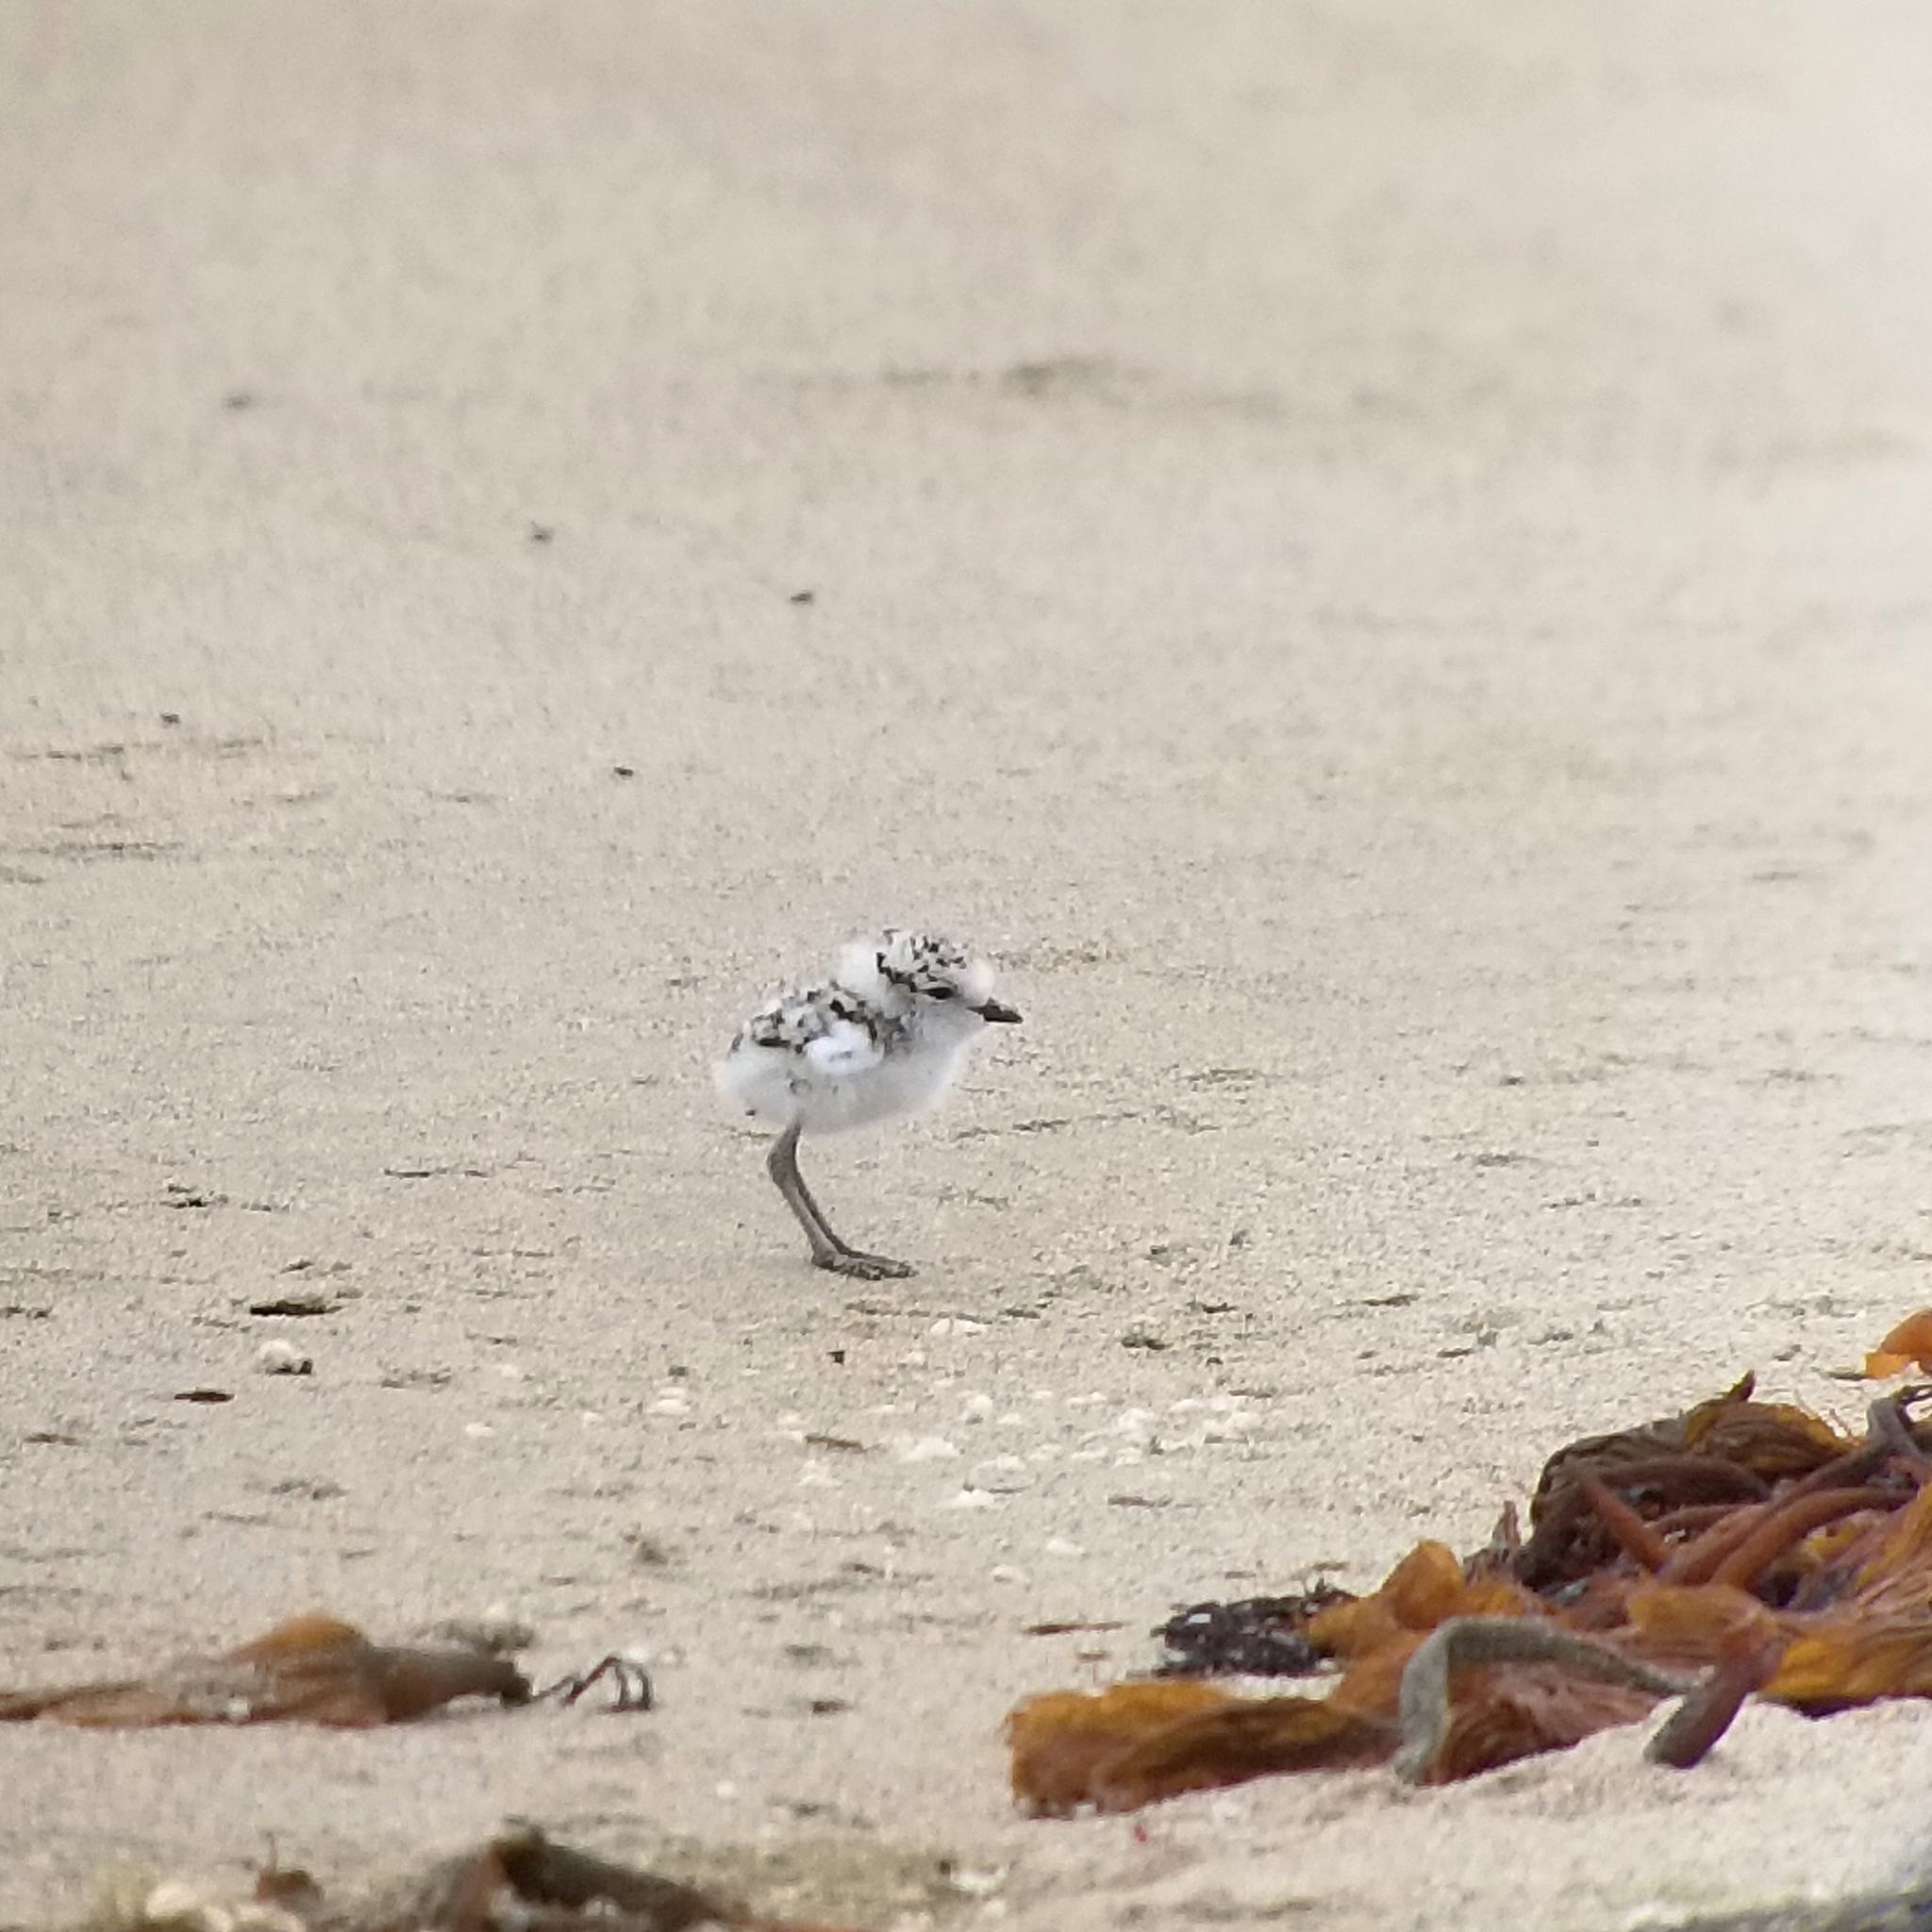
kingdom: Animalia
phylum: Chordata
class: Aves
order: Charadriiformes
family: Charadriidae
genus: Anarhynchus
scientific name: Anarhynchus
